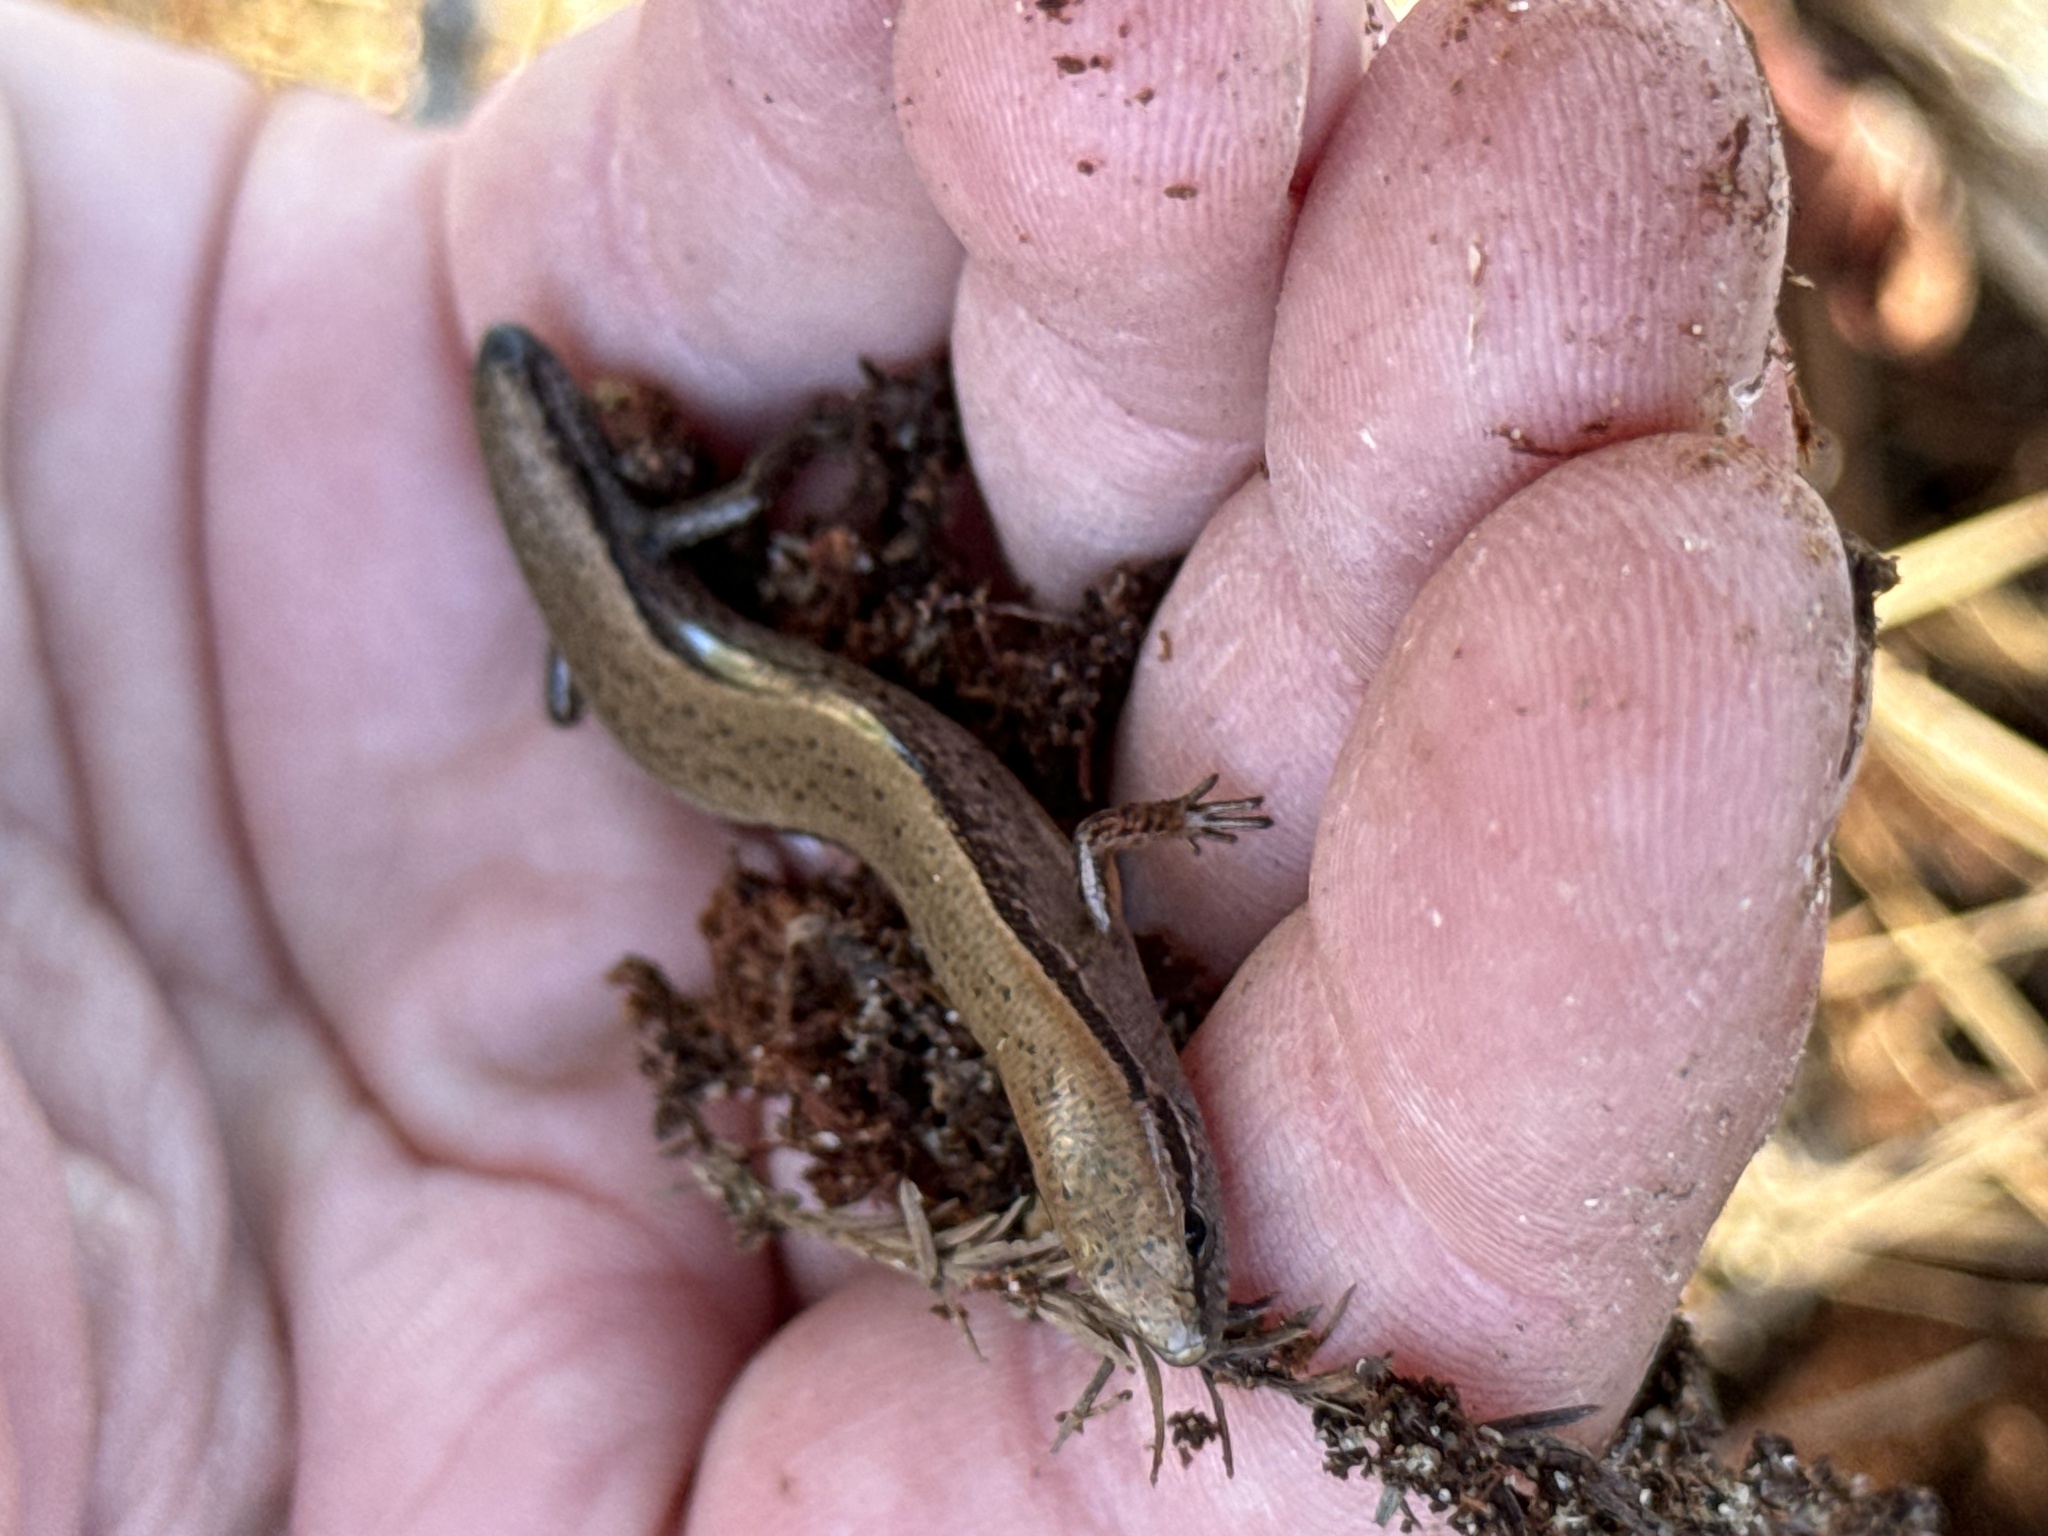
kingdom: Animalia
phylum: Chordata
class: Squamata
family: Scincidae
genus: Scincella
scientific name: Scincella lateralis
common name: Ground skink
